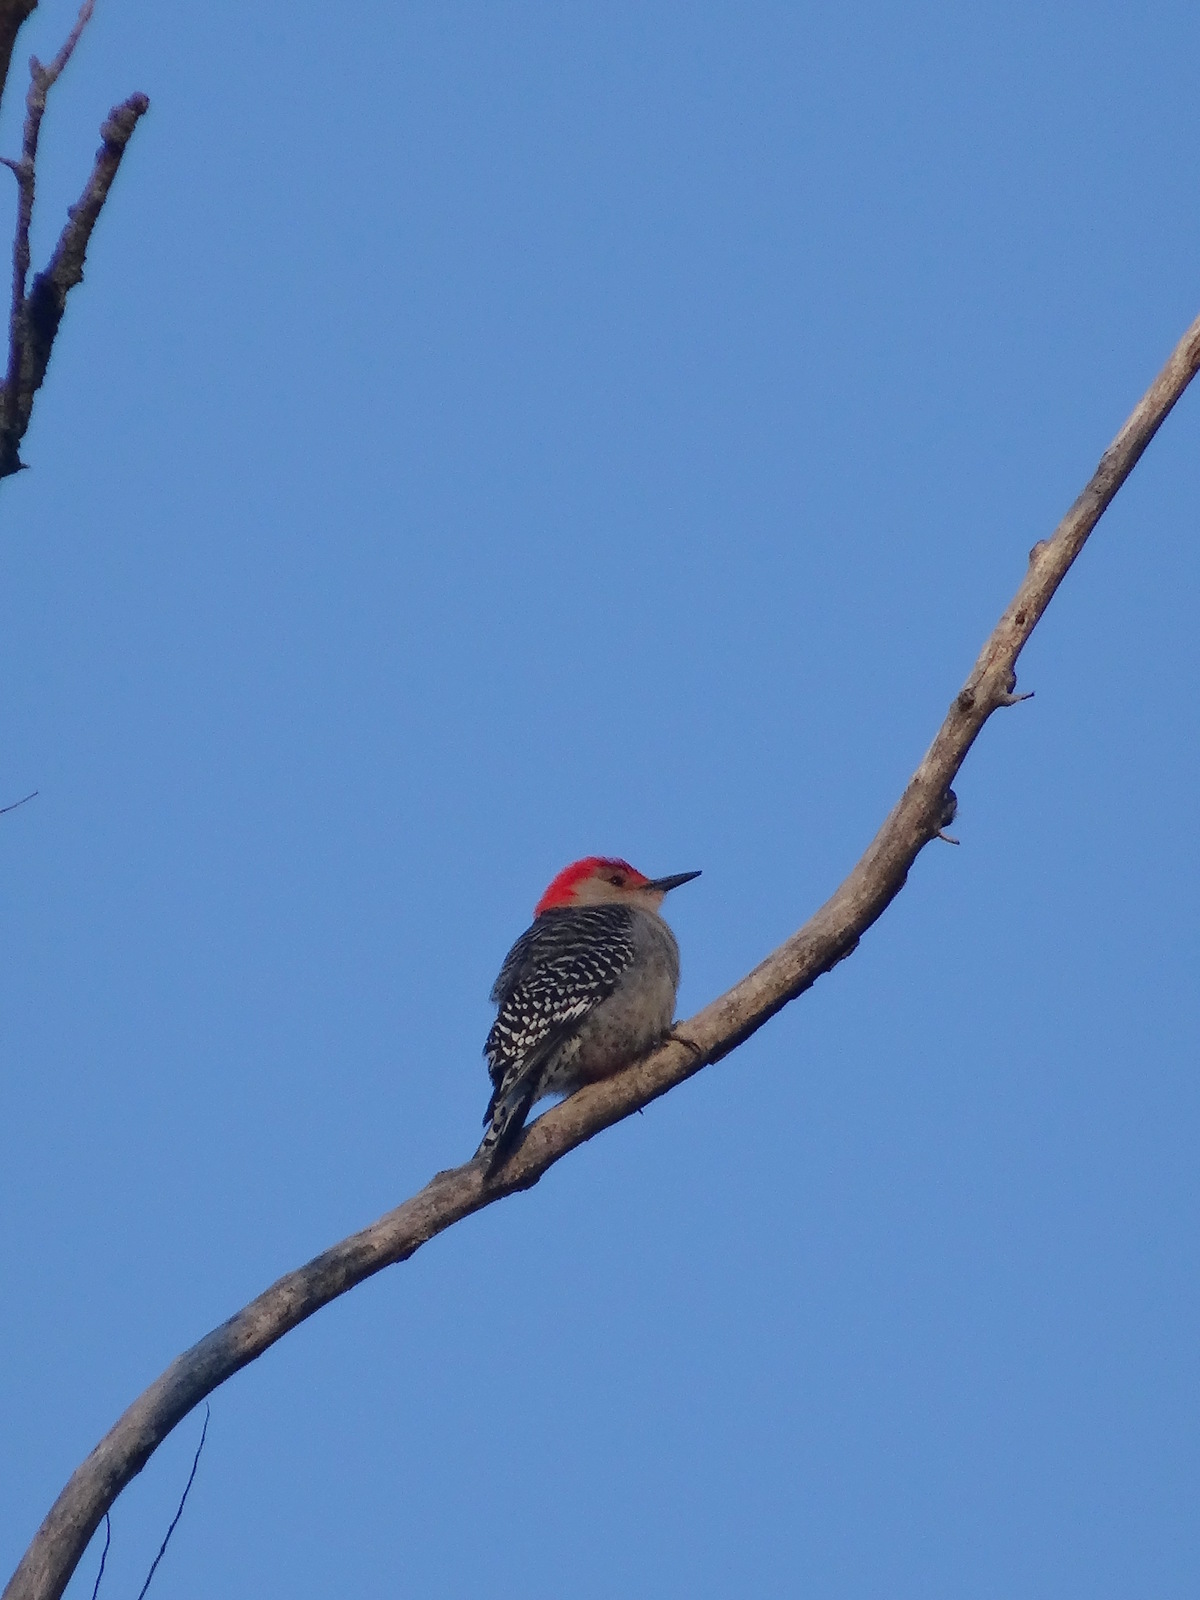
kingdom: Animalia
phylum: Chordata
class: Aves
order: Piciformes
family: Picidae
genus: Melanerpes
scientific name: Melanerpes carolinus
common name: Red-bellied woodpecker
